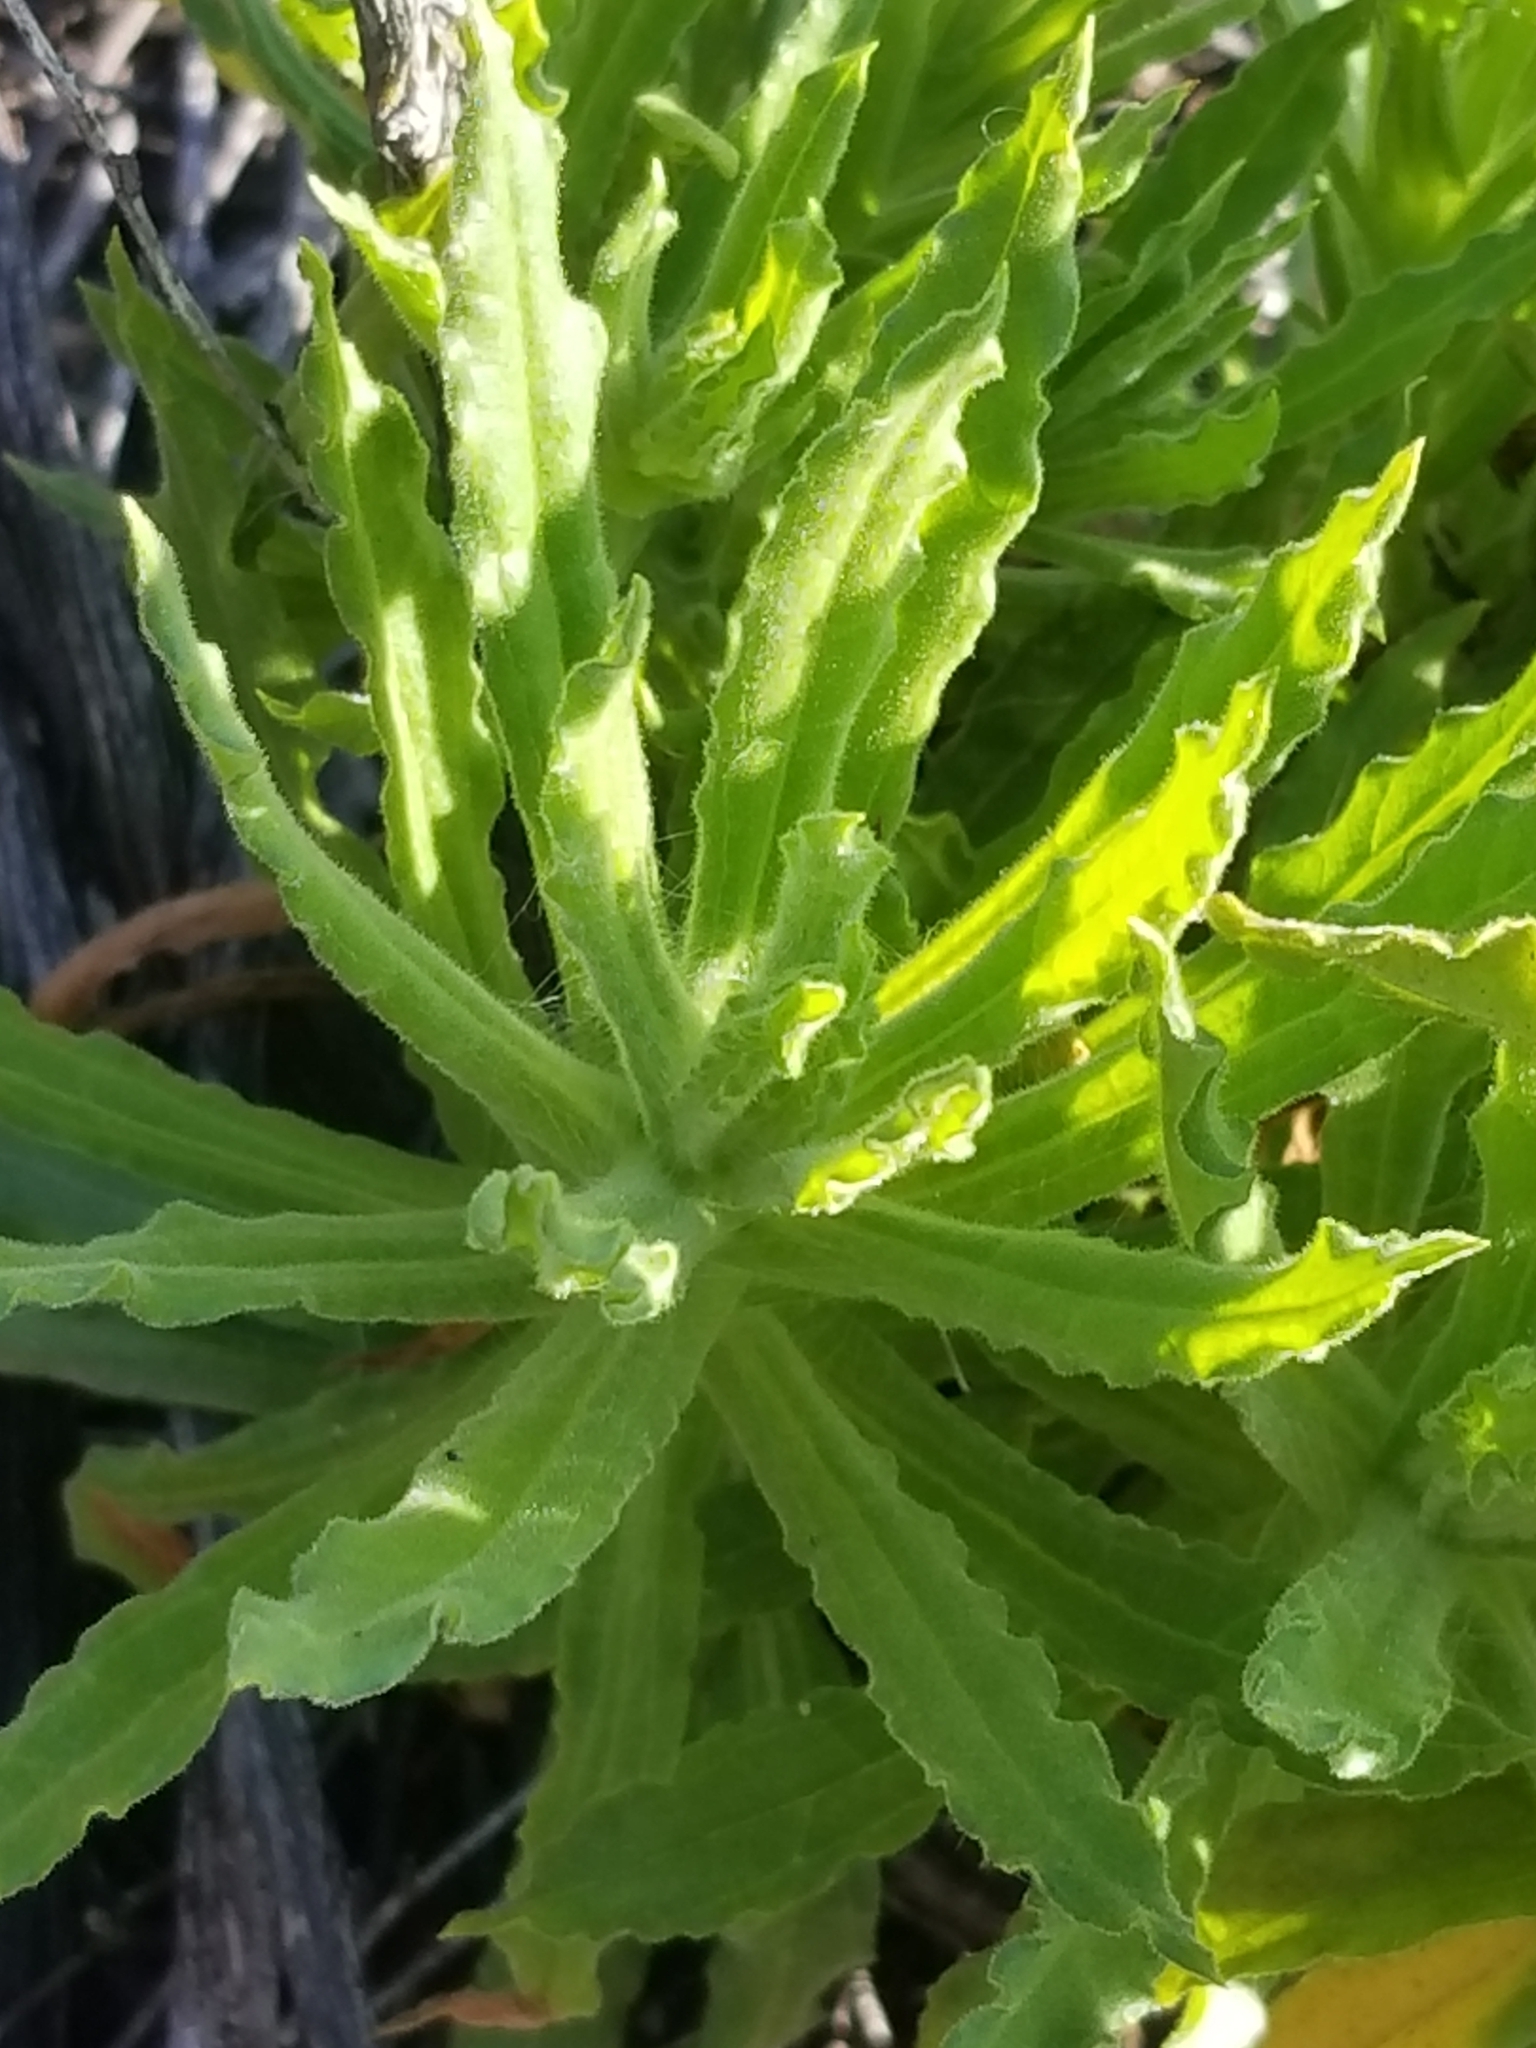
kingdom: Plantae
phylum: Tracheophyta
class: Magnoliopsida
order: Asterales
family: Asteraceae
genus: Pseudognaphalium
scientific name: Pseudognaphalium californicum
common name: California rabbit-tobacco
